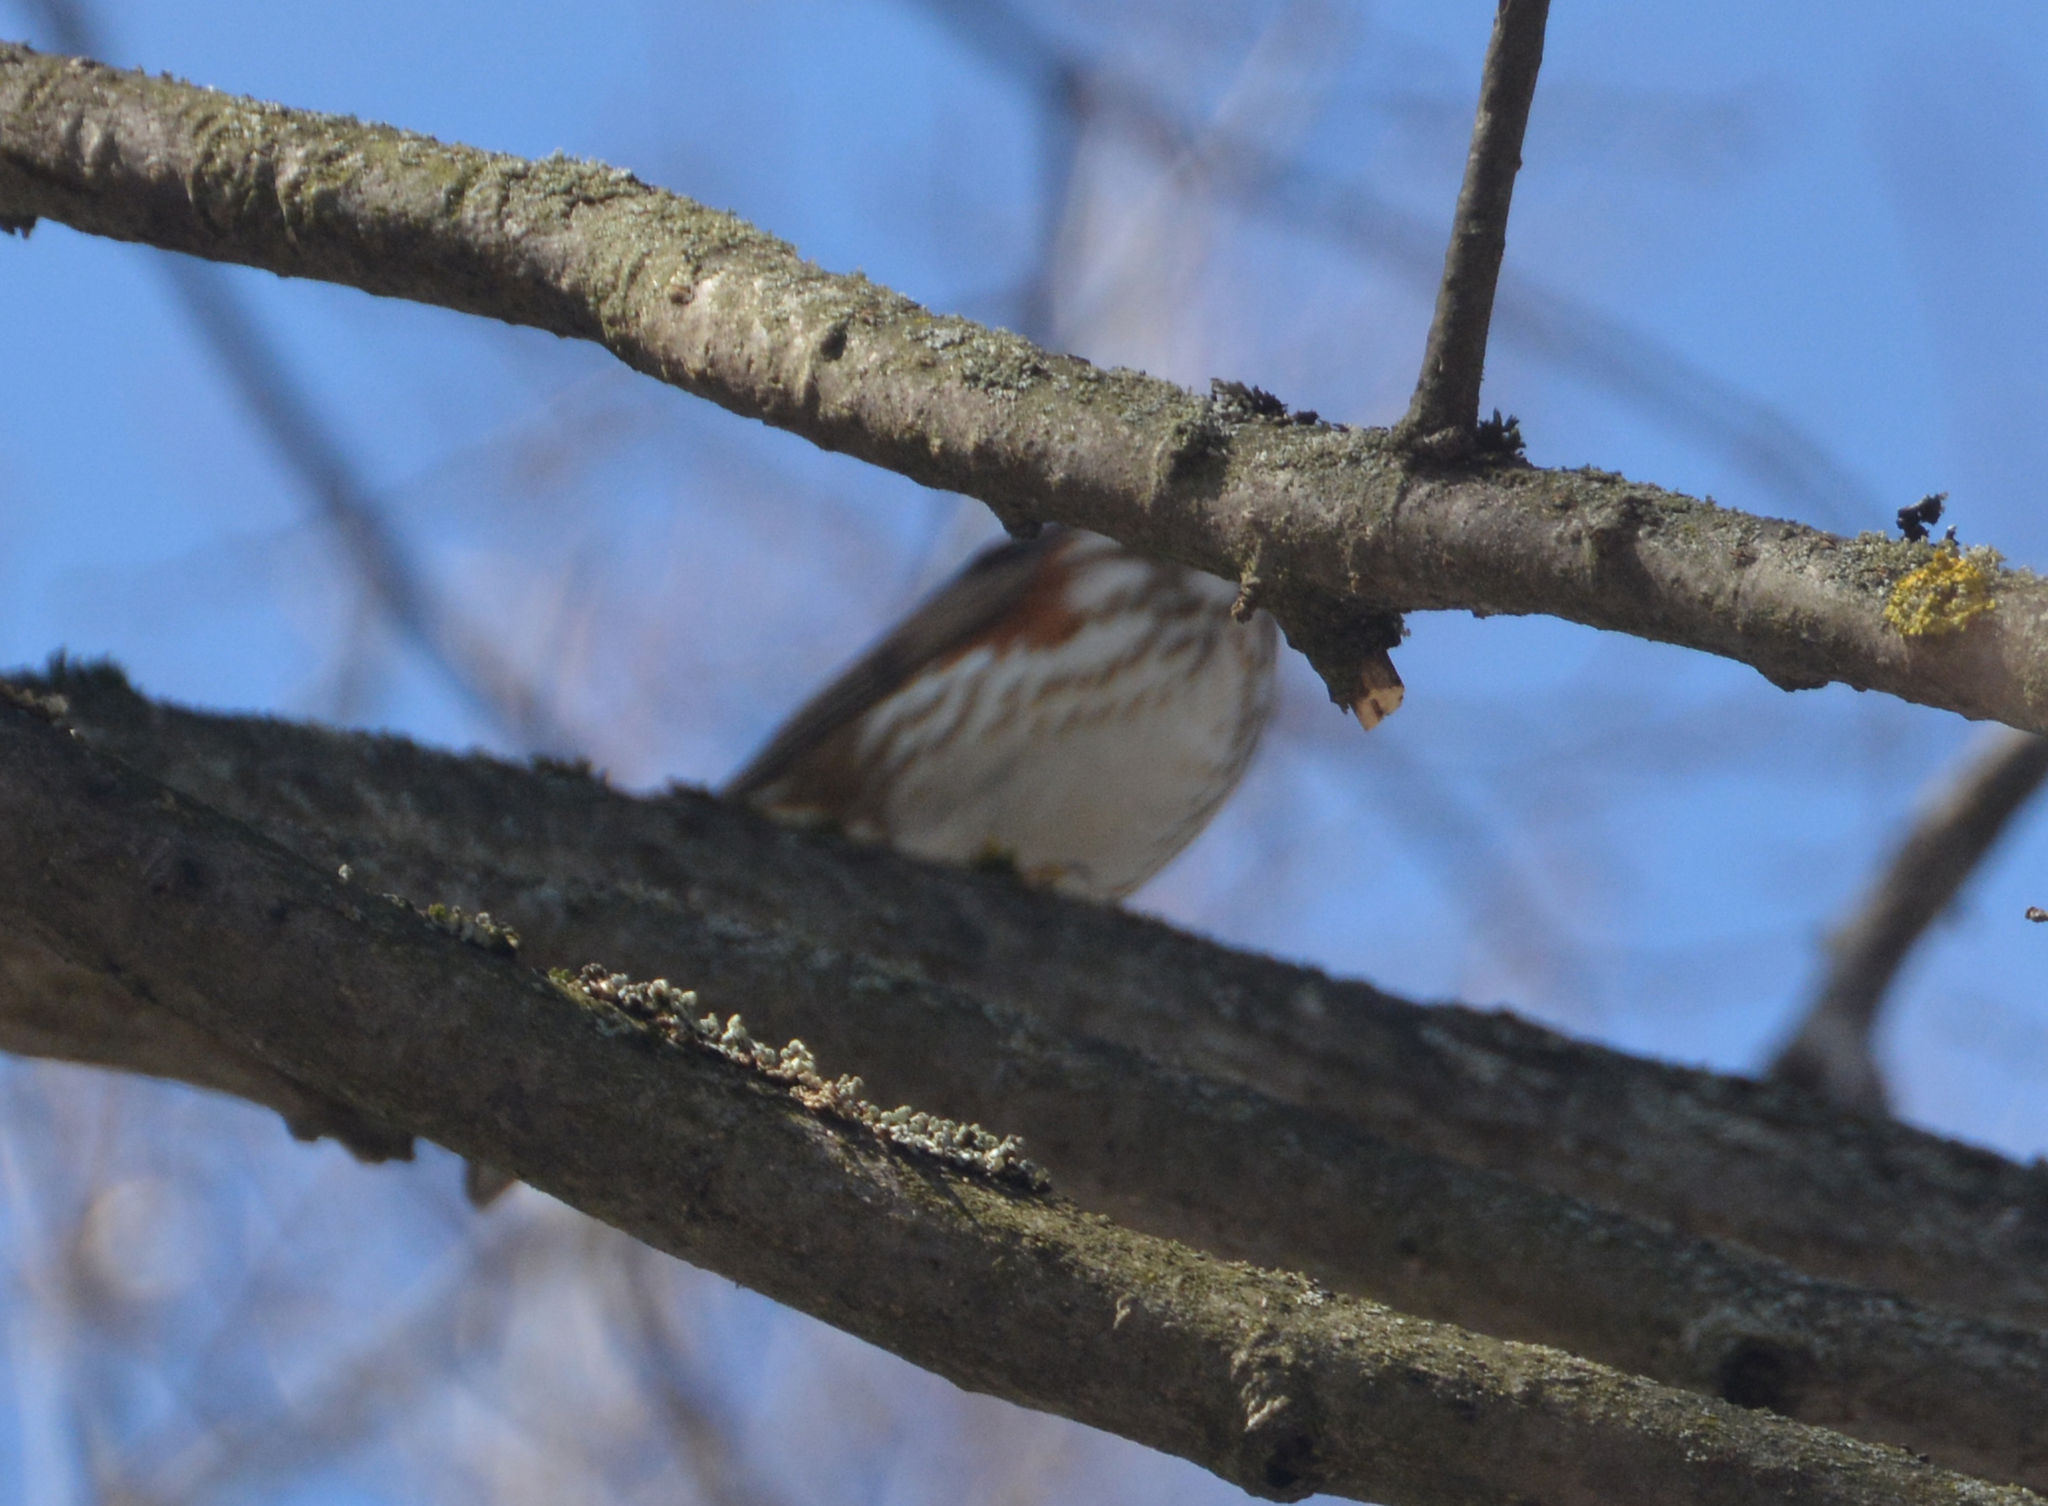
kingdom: Animalia
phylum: Chordata
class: Aves
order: Passeriformes
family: Turdidae
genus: Turdus
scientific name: Turdus iliacus
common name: Redwing
